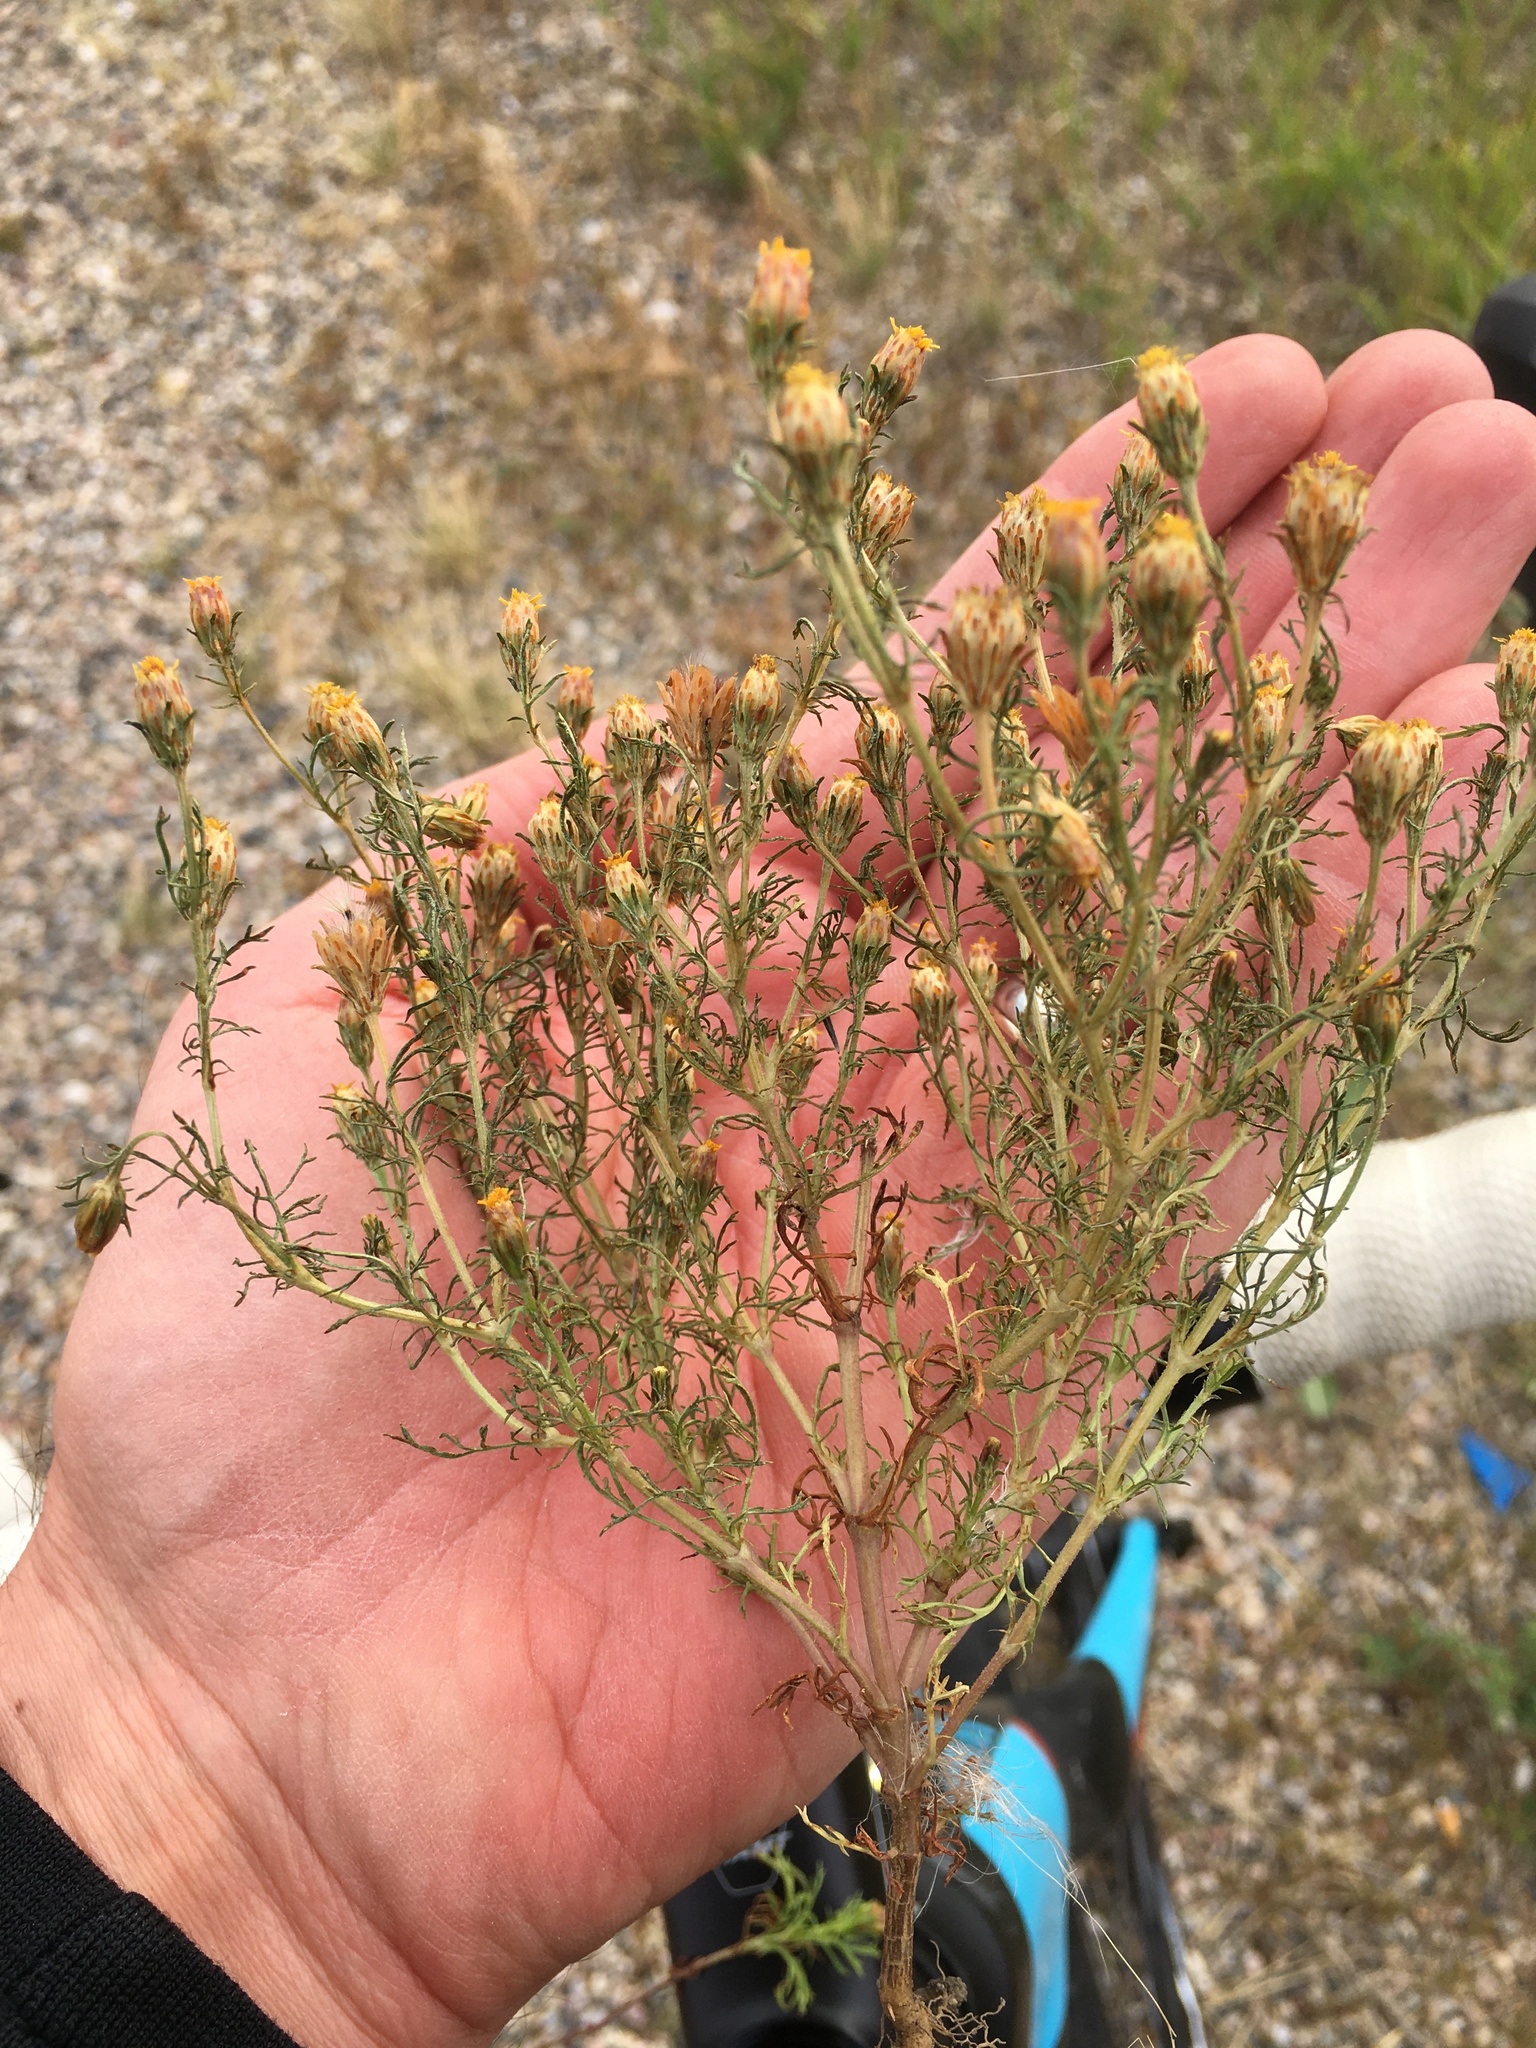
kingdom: Plantae
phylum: Tracheophyta
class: Magnoliopsida
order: Asterales
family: Asteraceae
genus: Dyssodia
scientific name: Dyssodia papposa
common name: Dogweed
